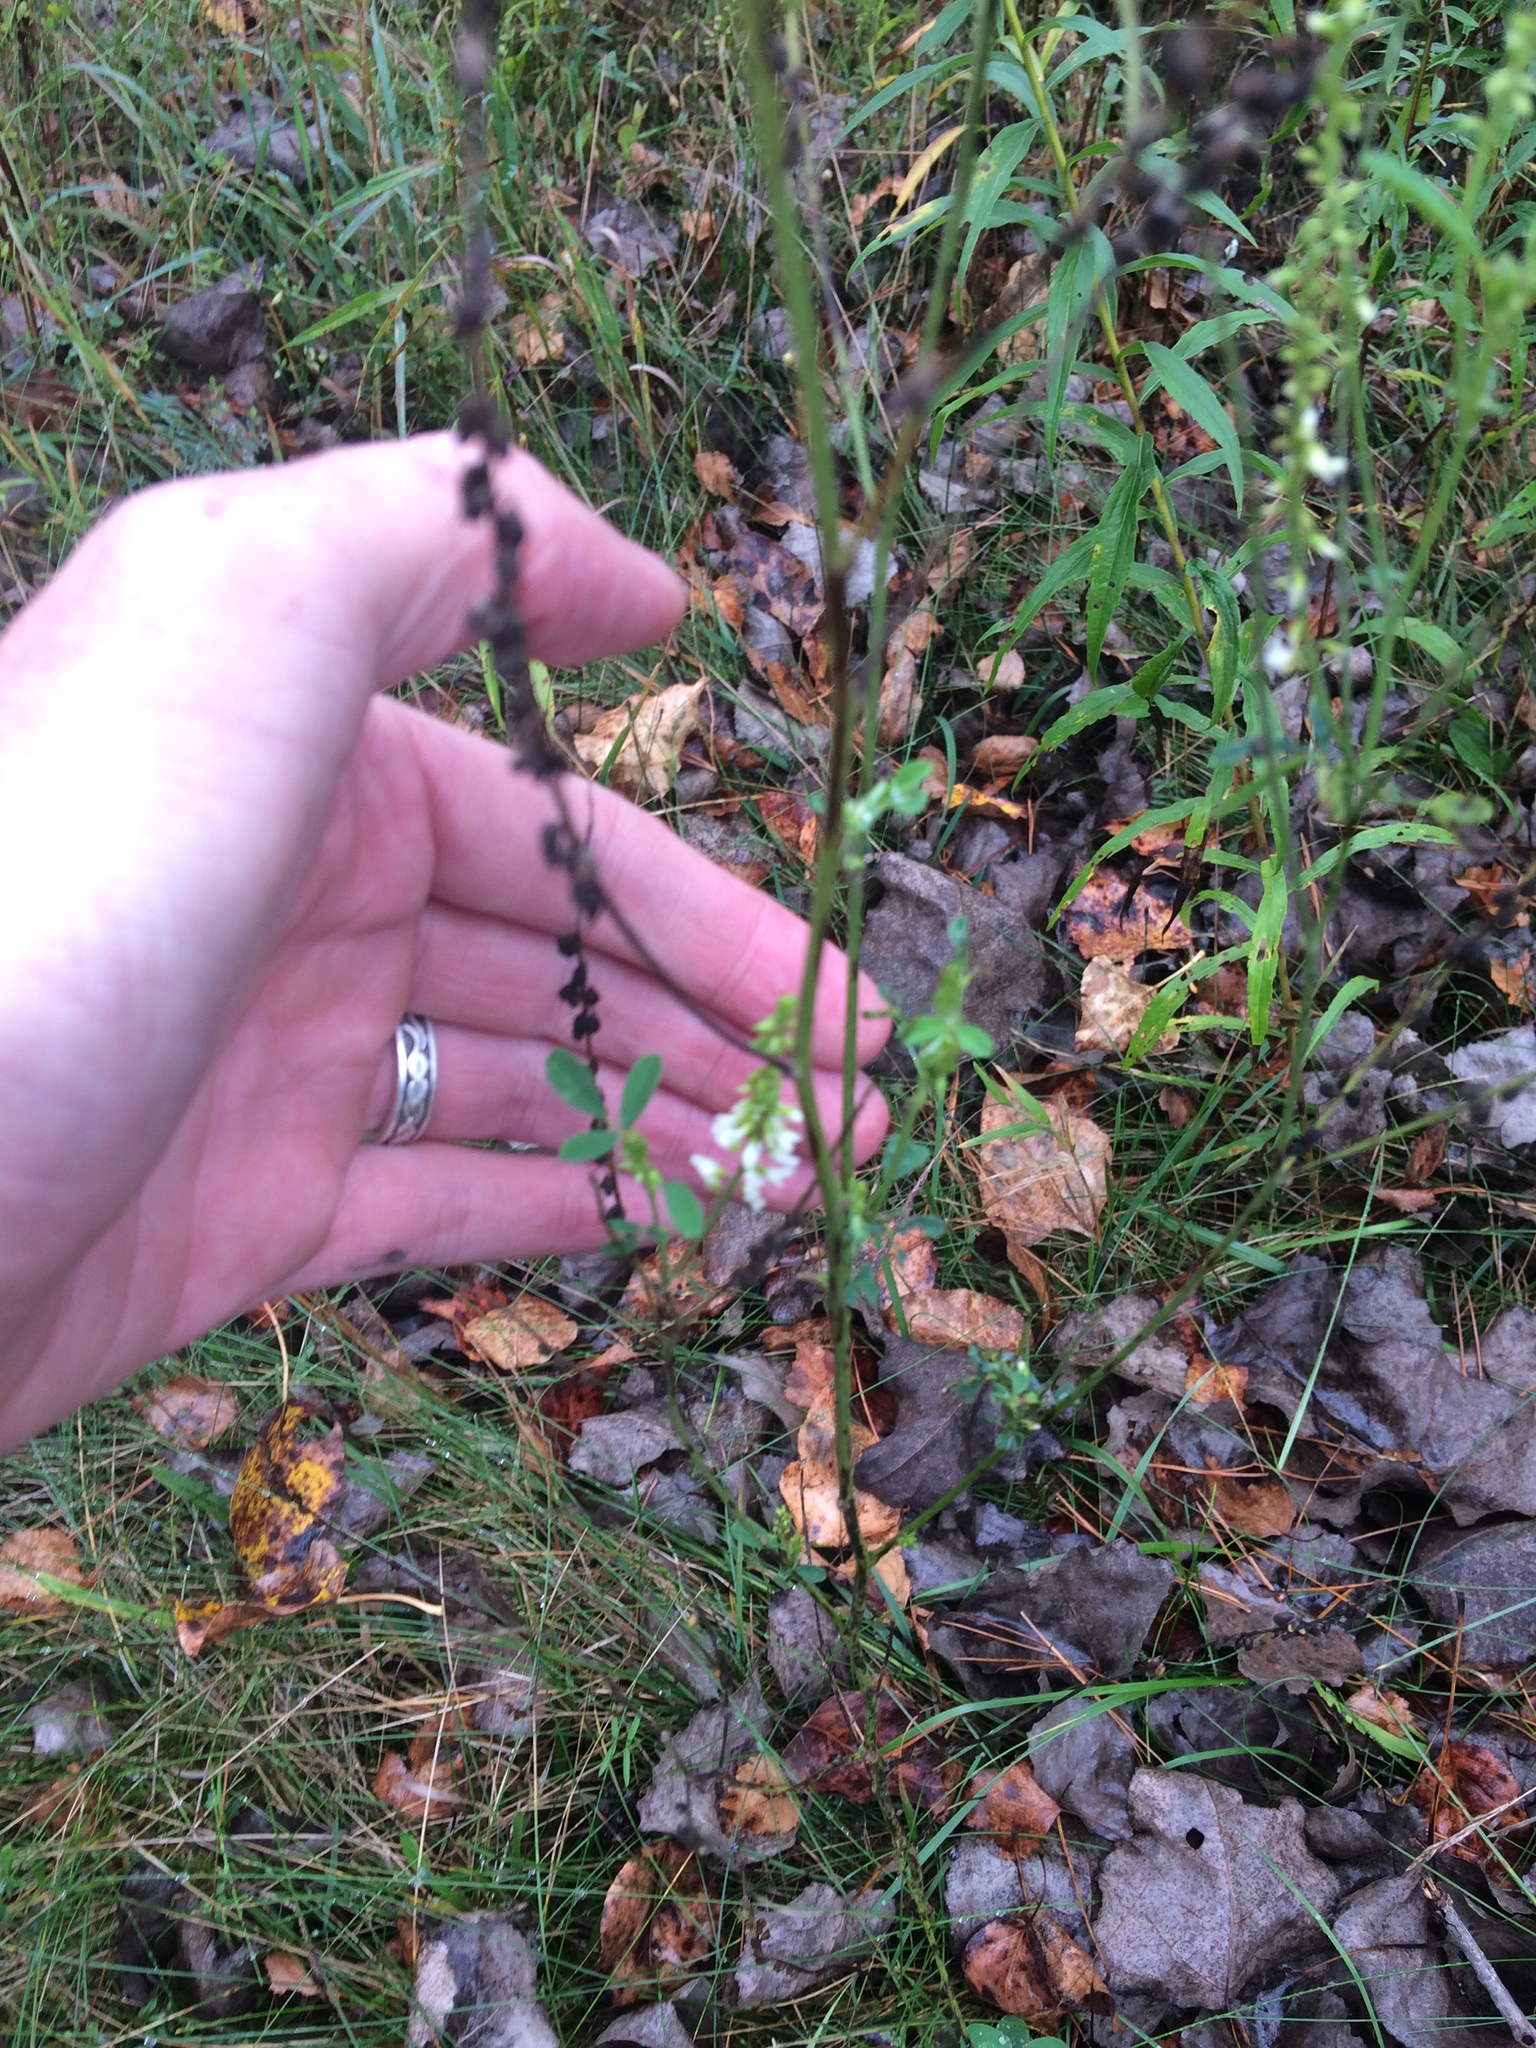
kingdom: Plantae
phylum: Tracheophyta
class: Magnoliopsida
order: Fabales
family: Fabaceae
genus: Melilotus
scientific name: Melilotus albus
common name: White melilot
